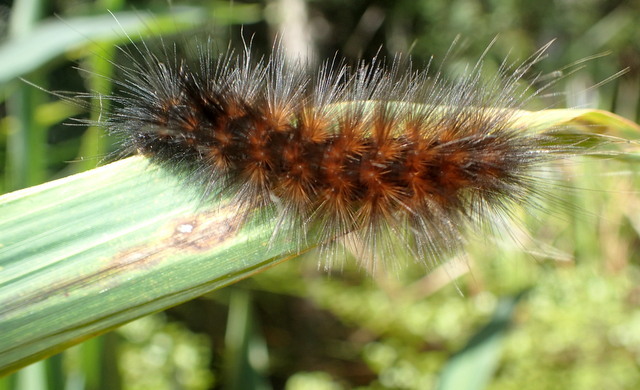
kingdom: Animalia
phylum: Arthropoda
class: Insecta
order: Lepidoptera
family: Erebidae
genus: Spilosoma
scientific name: Spilosoma virginica
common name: Virginia tiger moth
